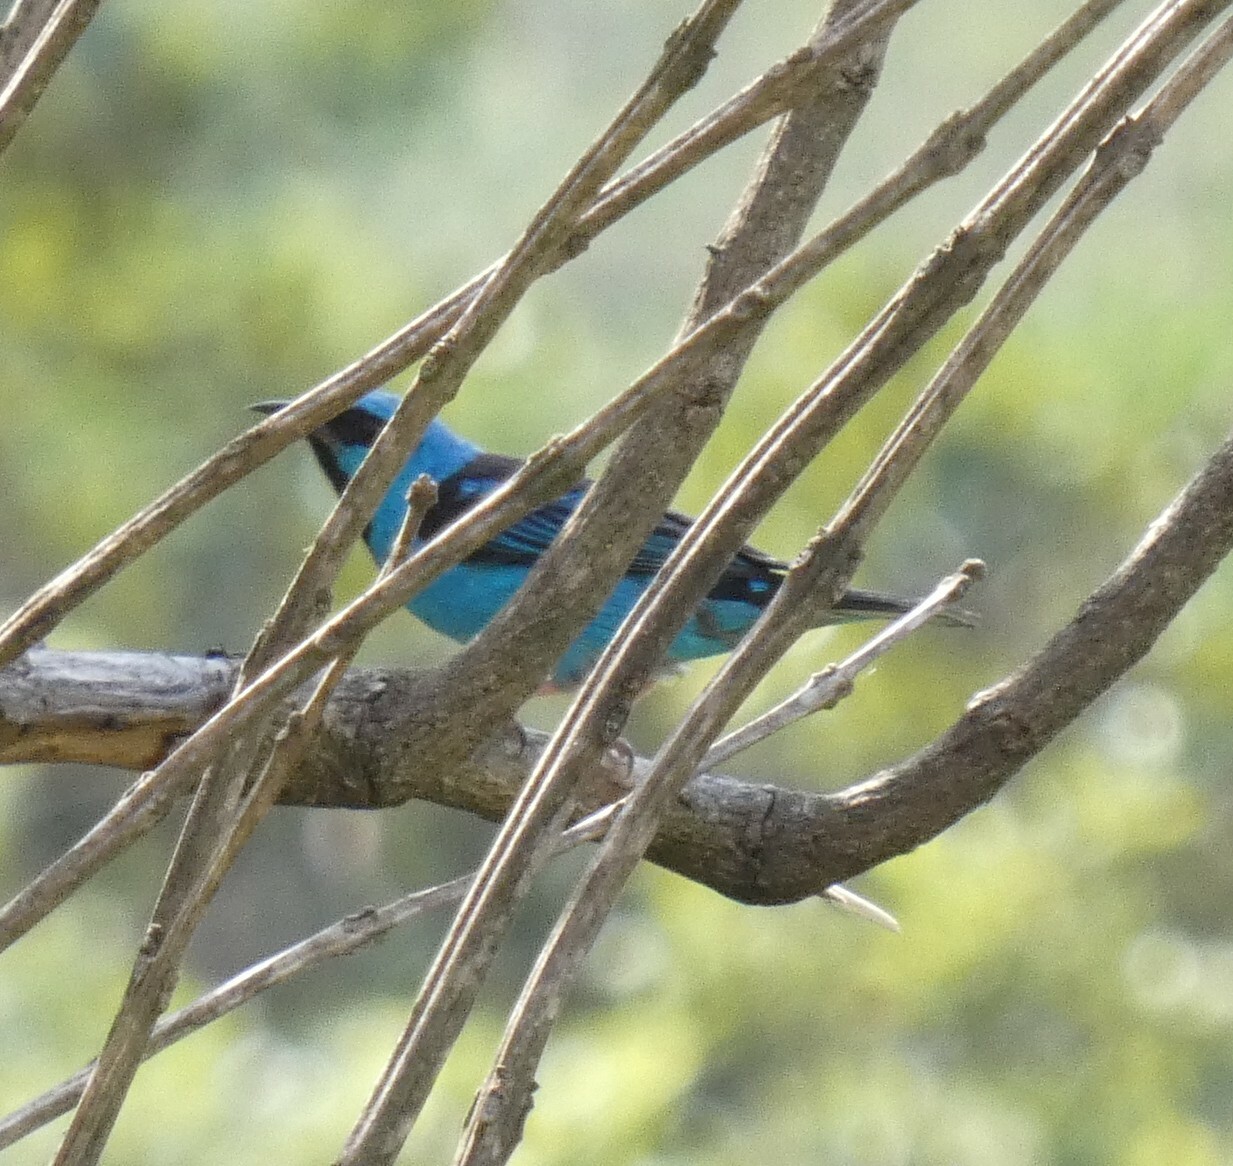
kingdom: Animalia
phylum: Chordata
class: Aves
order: Passeriformes
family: Thraupidae
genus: Dacnis
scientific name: Dacnis cayana
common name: Blue dacnis
